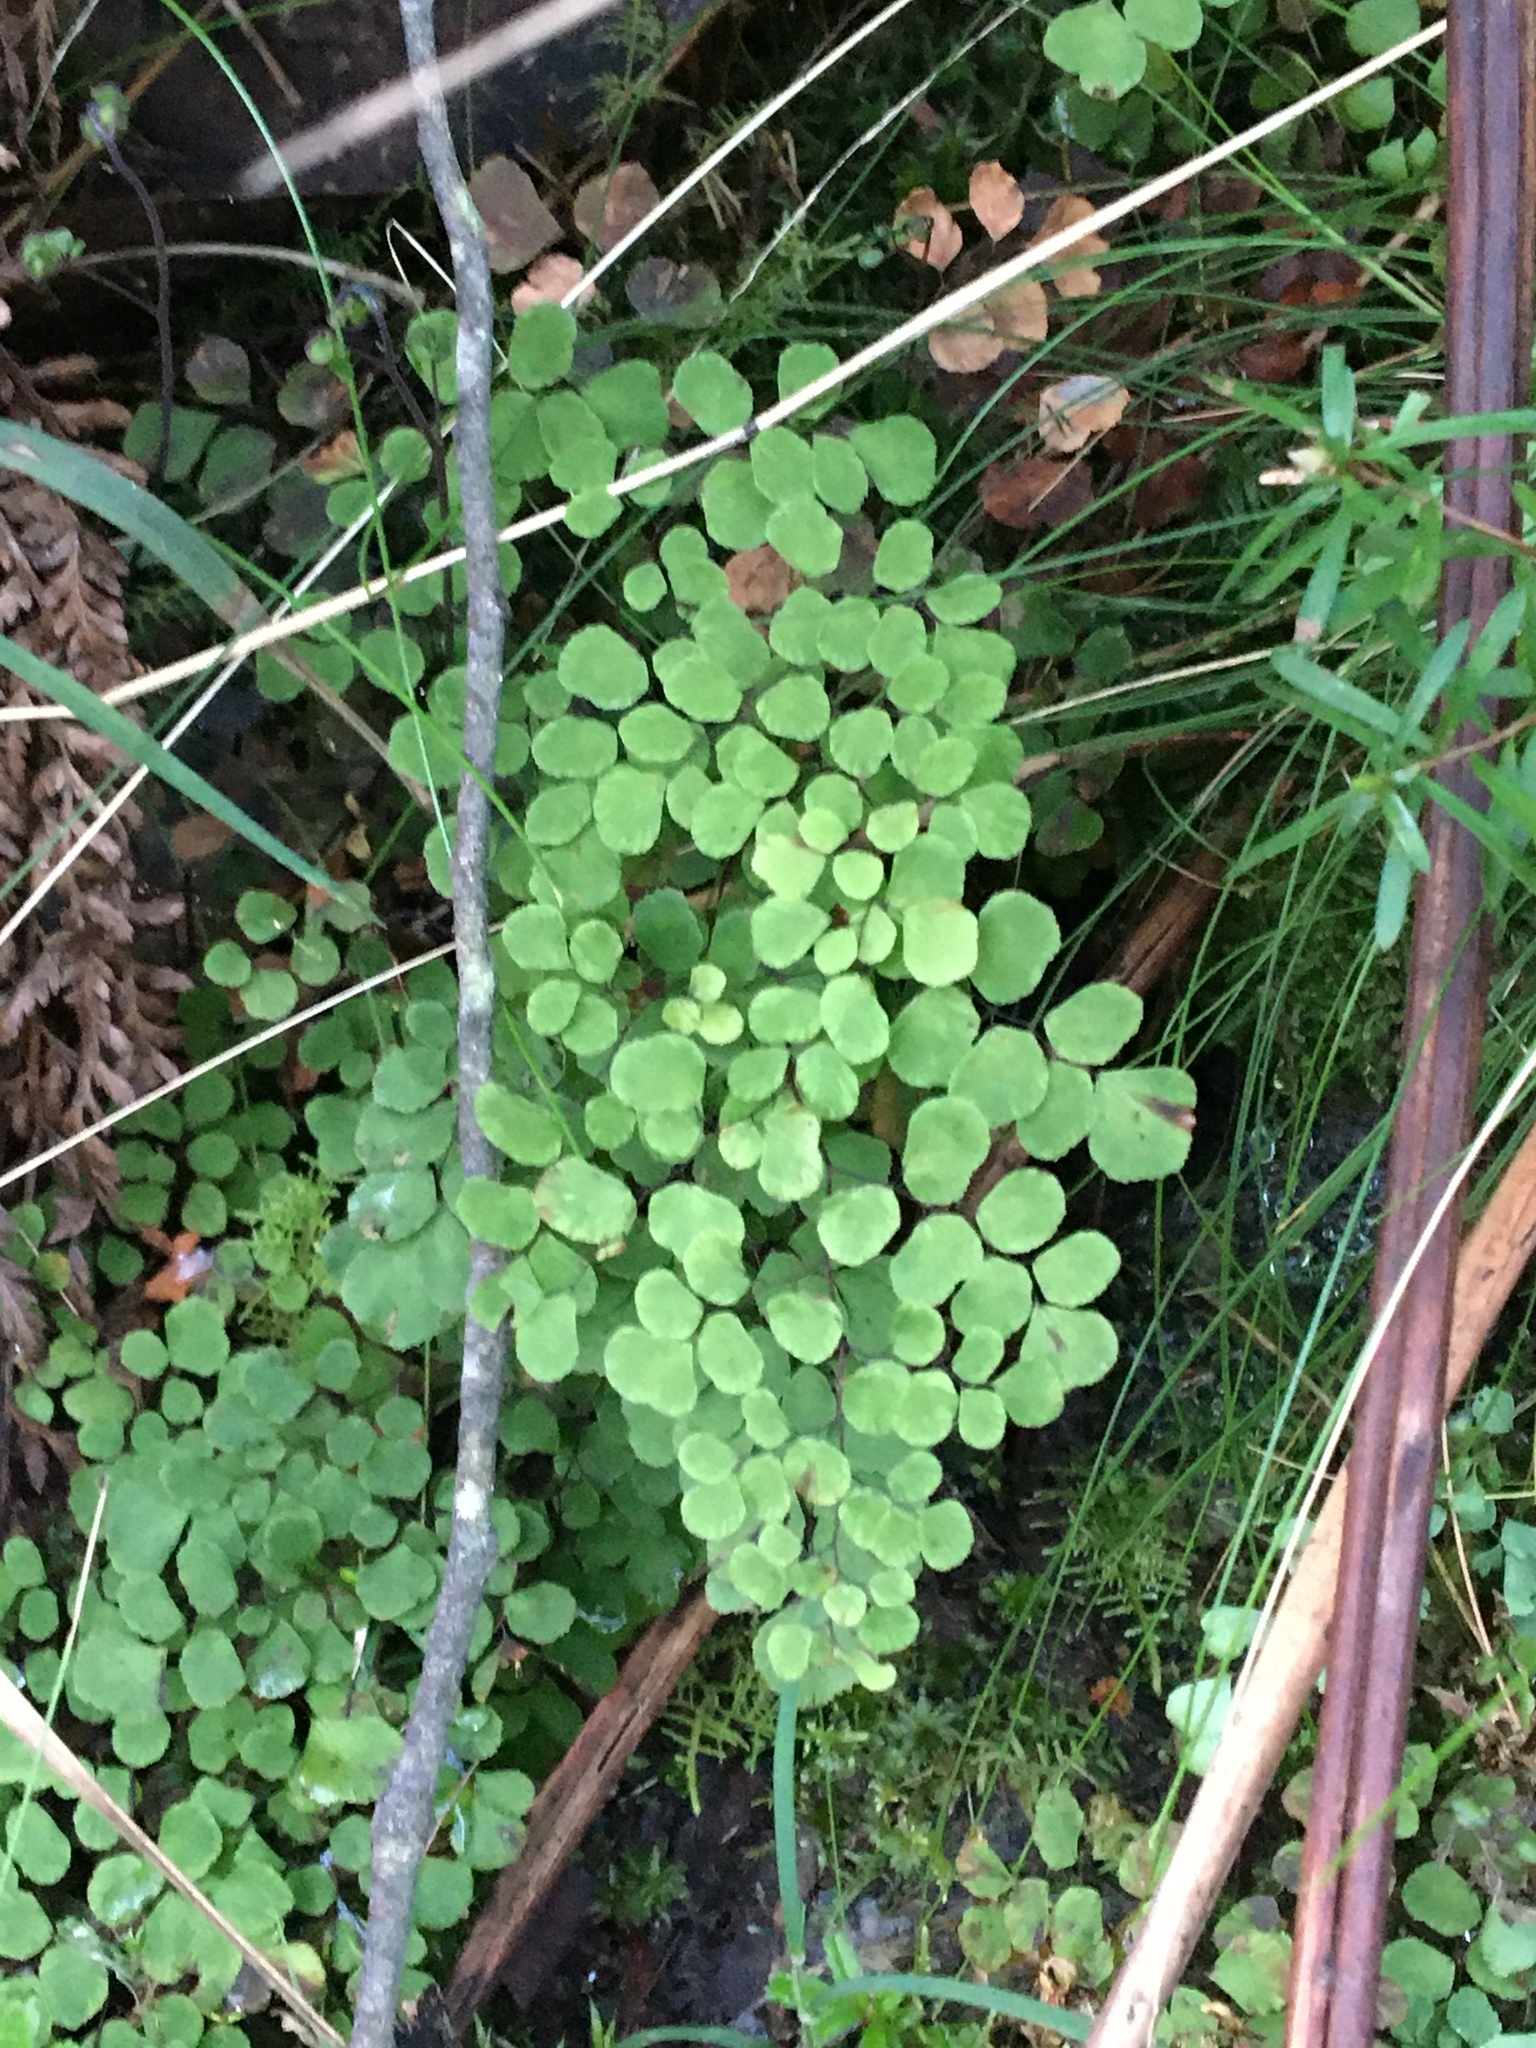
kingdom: Plantae
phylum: Tracheophyta
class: Polypodiopsida
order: Polypodiales
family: Pteridaceae
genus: Adiantum
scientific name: Adiantum aethiopicum
